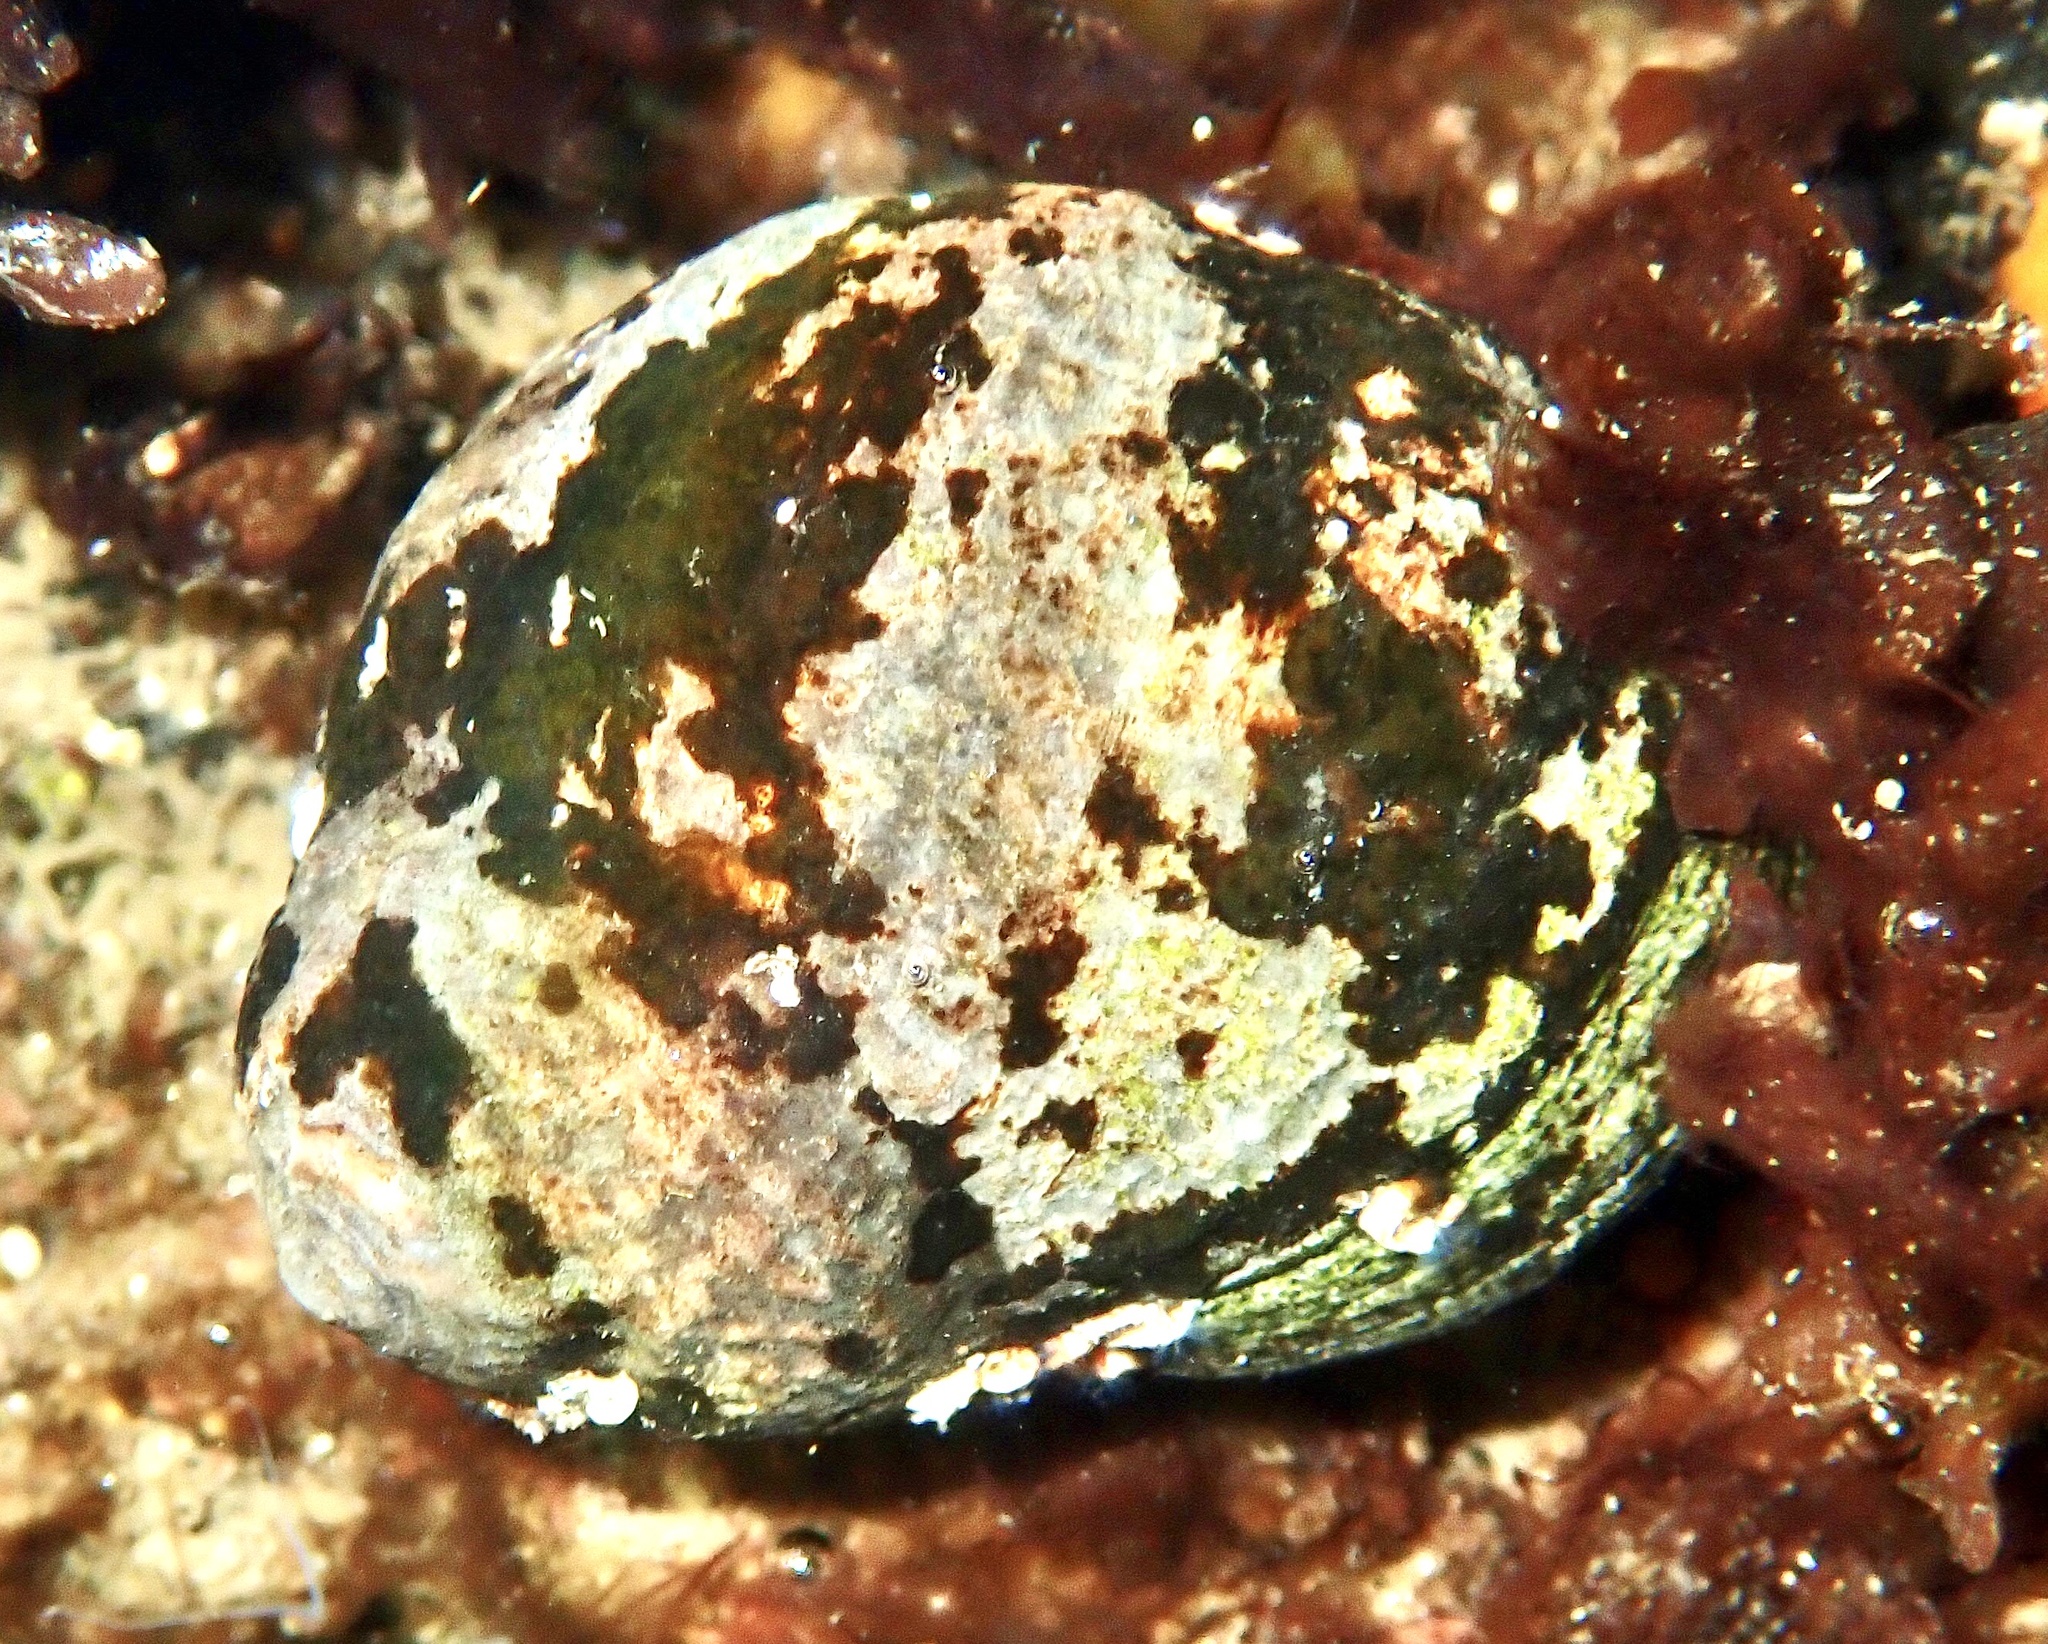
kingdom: Animalia
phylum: Mollusca
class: Gastropoda
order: Littorinimorpha
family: Littorinidae
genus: Littorina
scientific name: Littorina littorea
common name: Common periwinkle
